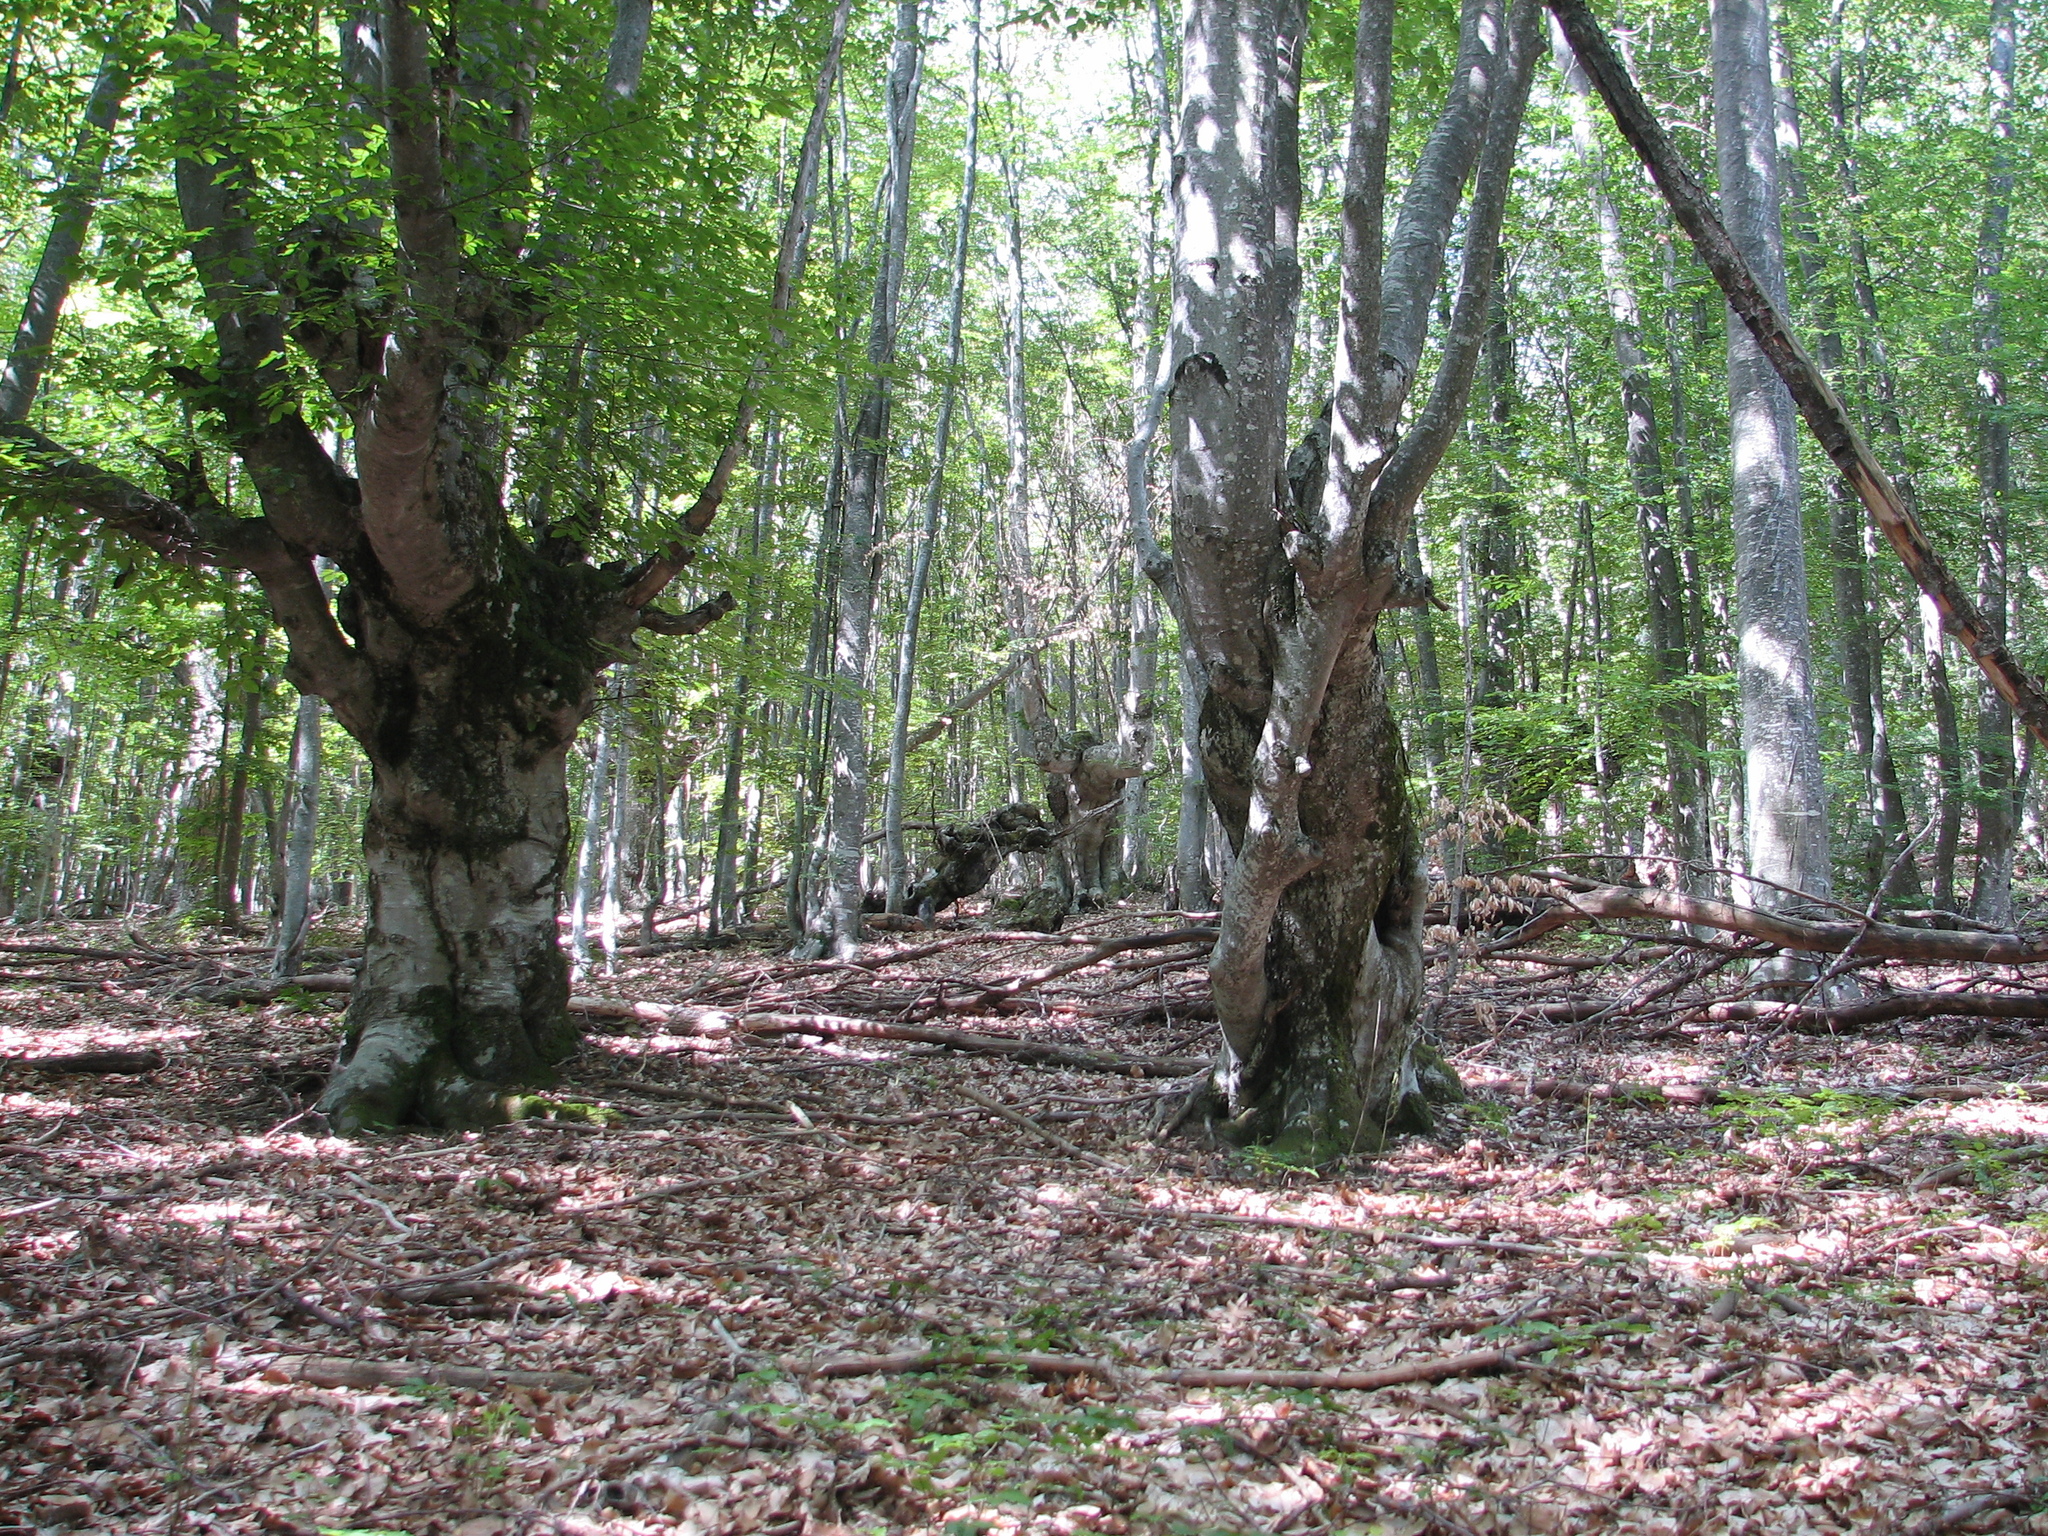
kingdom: Plantae
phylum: Tracheophyta
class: Magnoliopsida
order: Fagales
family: Fagaceae
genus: Fagus
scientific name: Fagus taurica
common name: Crimean beech
